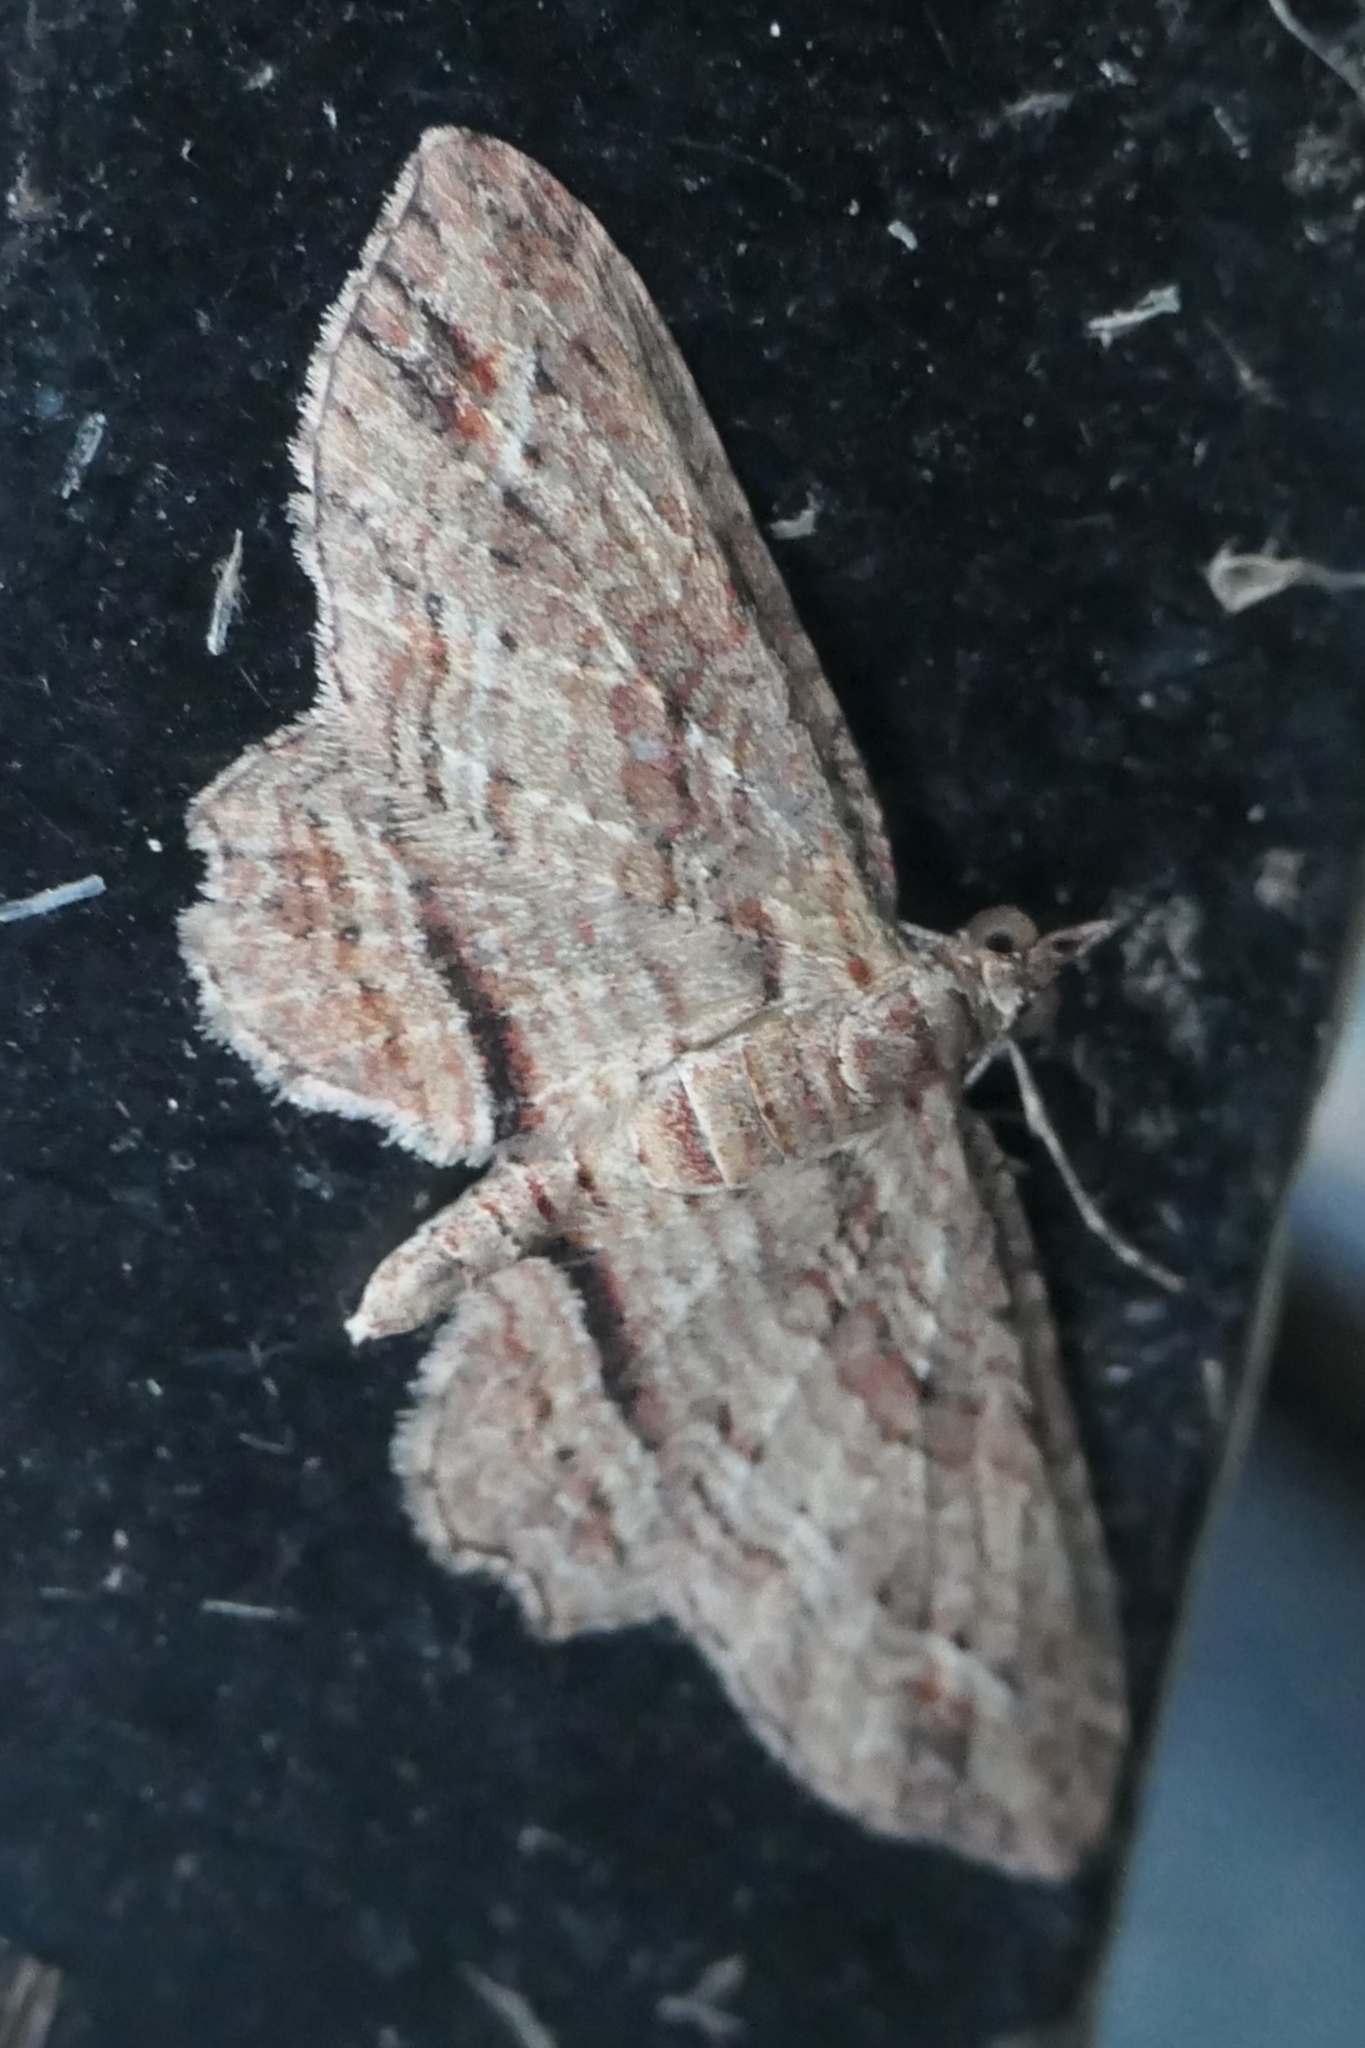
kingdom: Animalia
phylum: Arthropoda
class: Insecta
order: Lepidoptera
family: Geometridae
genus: Chloroclystis
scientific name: Chloroclystis filata
